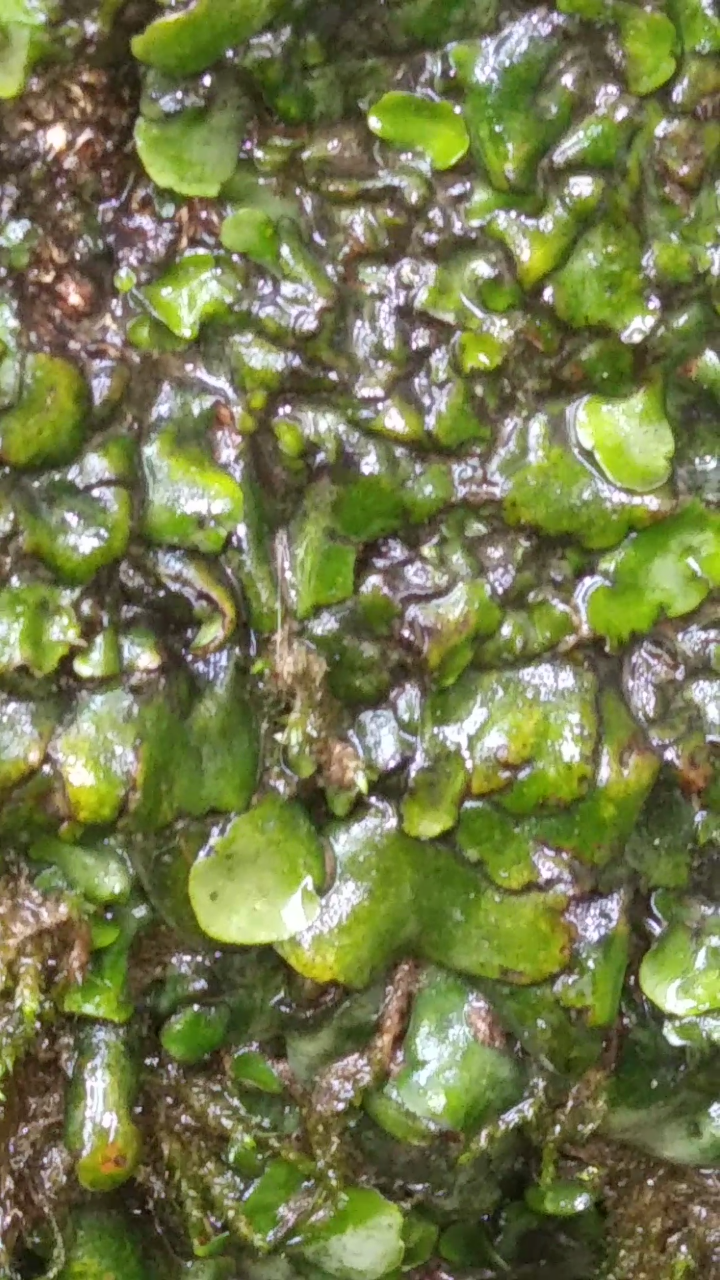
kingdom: Plantae
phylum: Marchantiophyta
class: Jungermanniopsida
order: Metzgeriales
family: Aneuraceae
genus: Aneura
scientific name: Aneura pinguis
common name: Common greasewort
